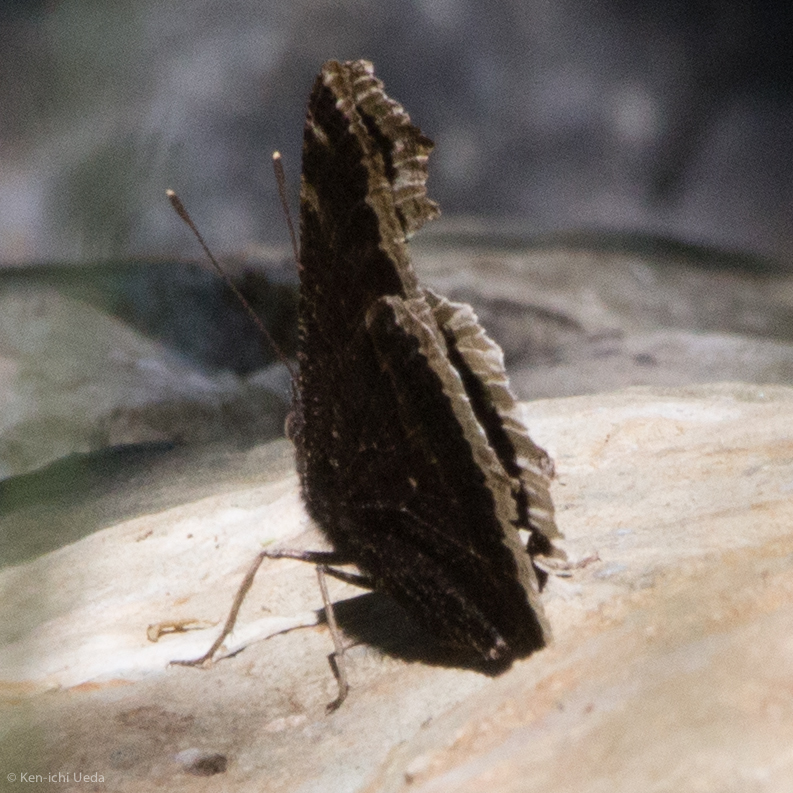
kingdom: Animalia
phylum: Arthropoda
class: Insecta
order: Lepidoptera
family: Nymphalidae
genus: Nymphalis
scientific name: Nymphalis antiopa
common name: Camberwell beauty
